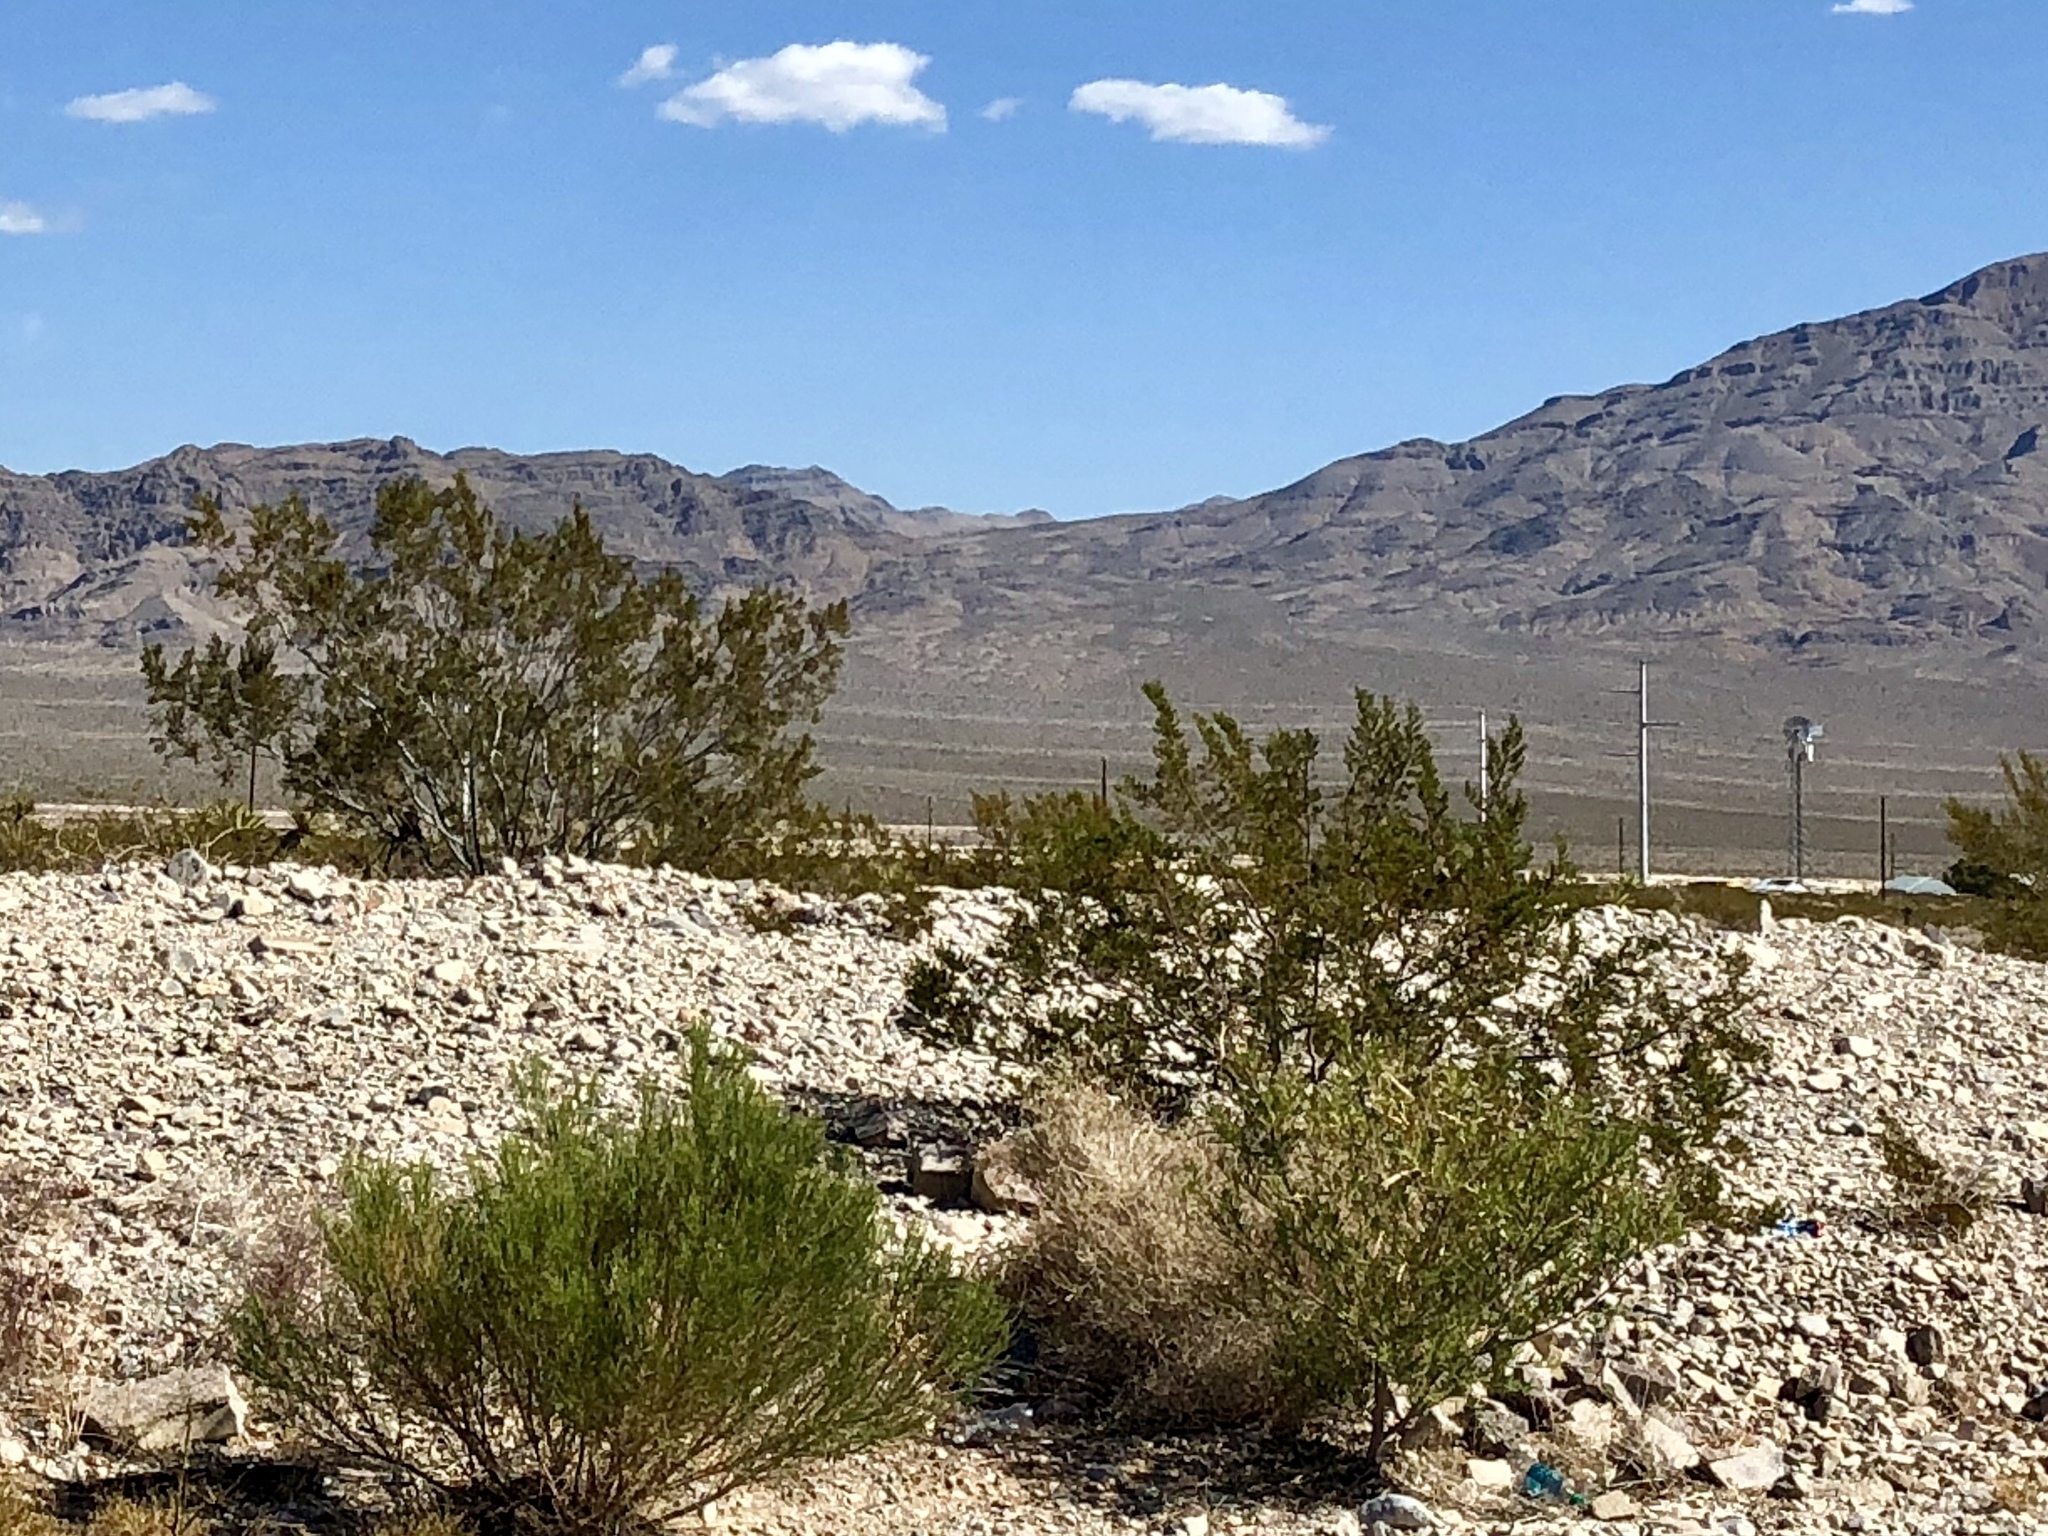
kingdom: Plantae
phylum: Tracheophyta
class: Magnoliopsida
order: Zygophyllales
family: Zygophyllaceae
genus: Larrea
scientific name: Larrea tridentata
